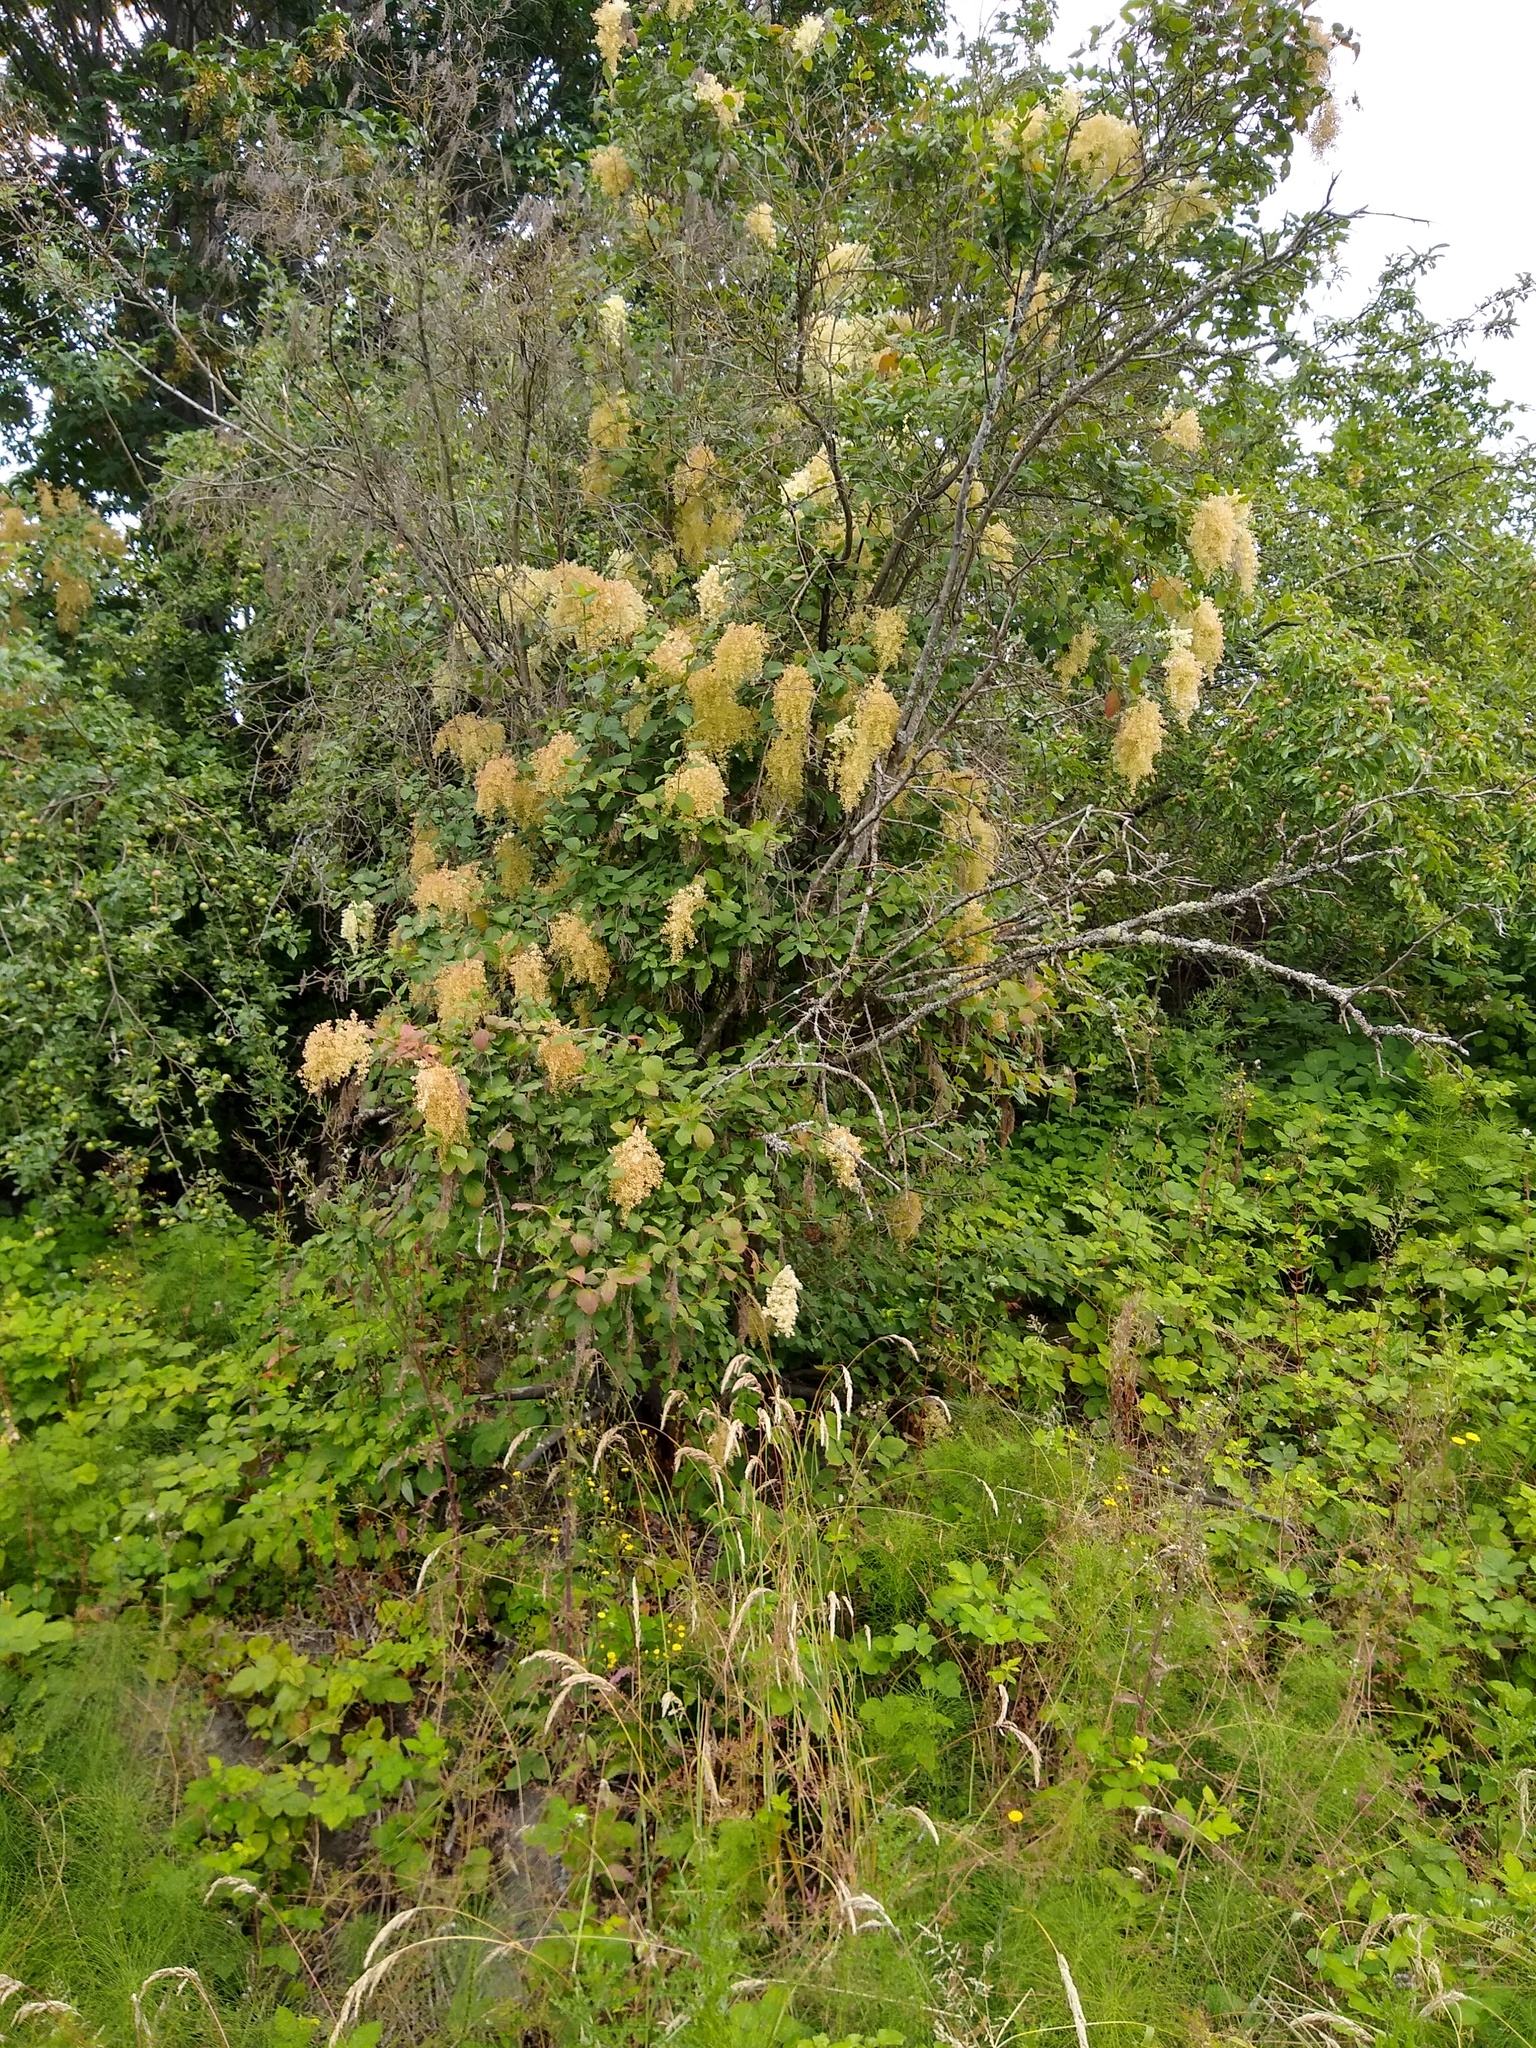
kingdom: Plantae
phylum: Tracheophyta
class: Magnoliopsida
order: Rosales
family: Rosaceae
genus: Holodiscus
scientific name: Holodiscus discolor
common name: Oceanspray
